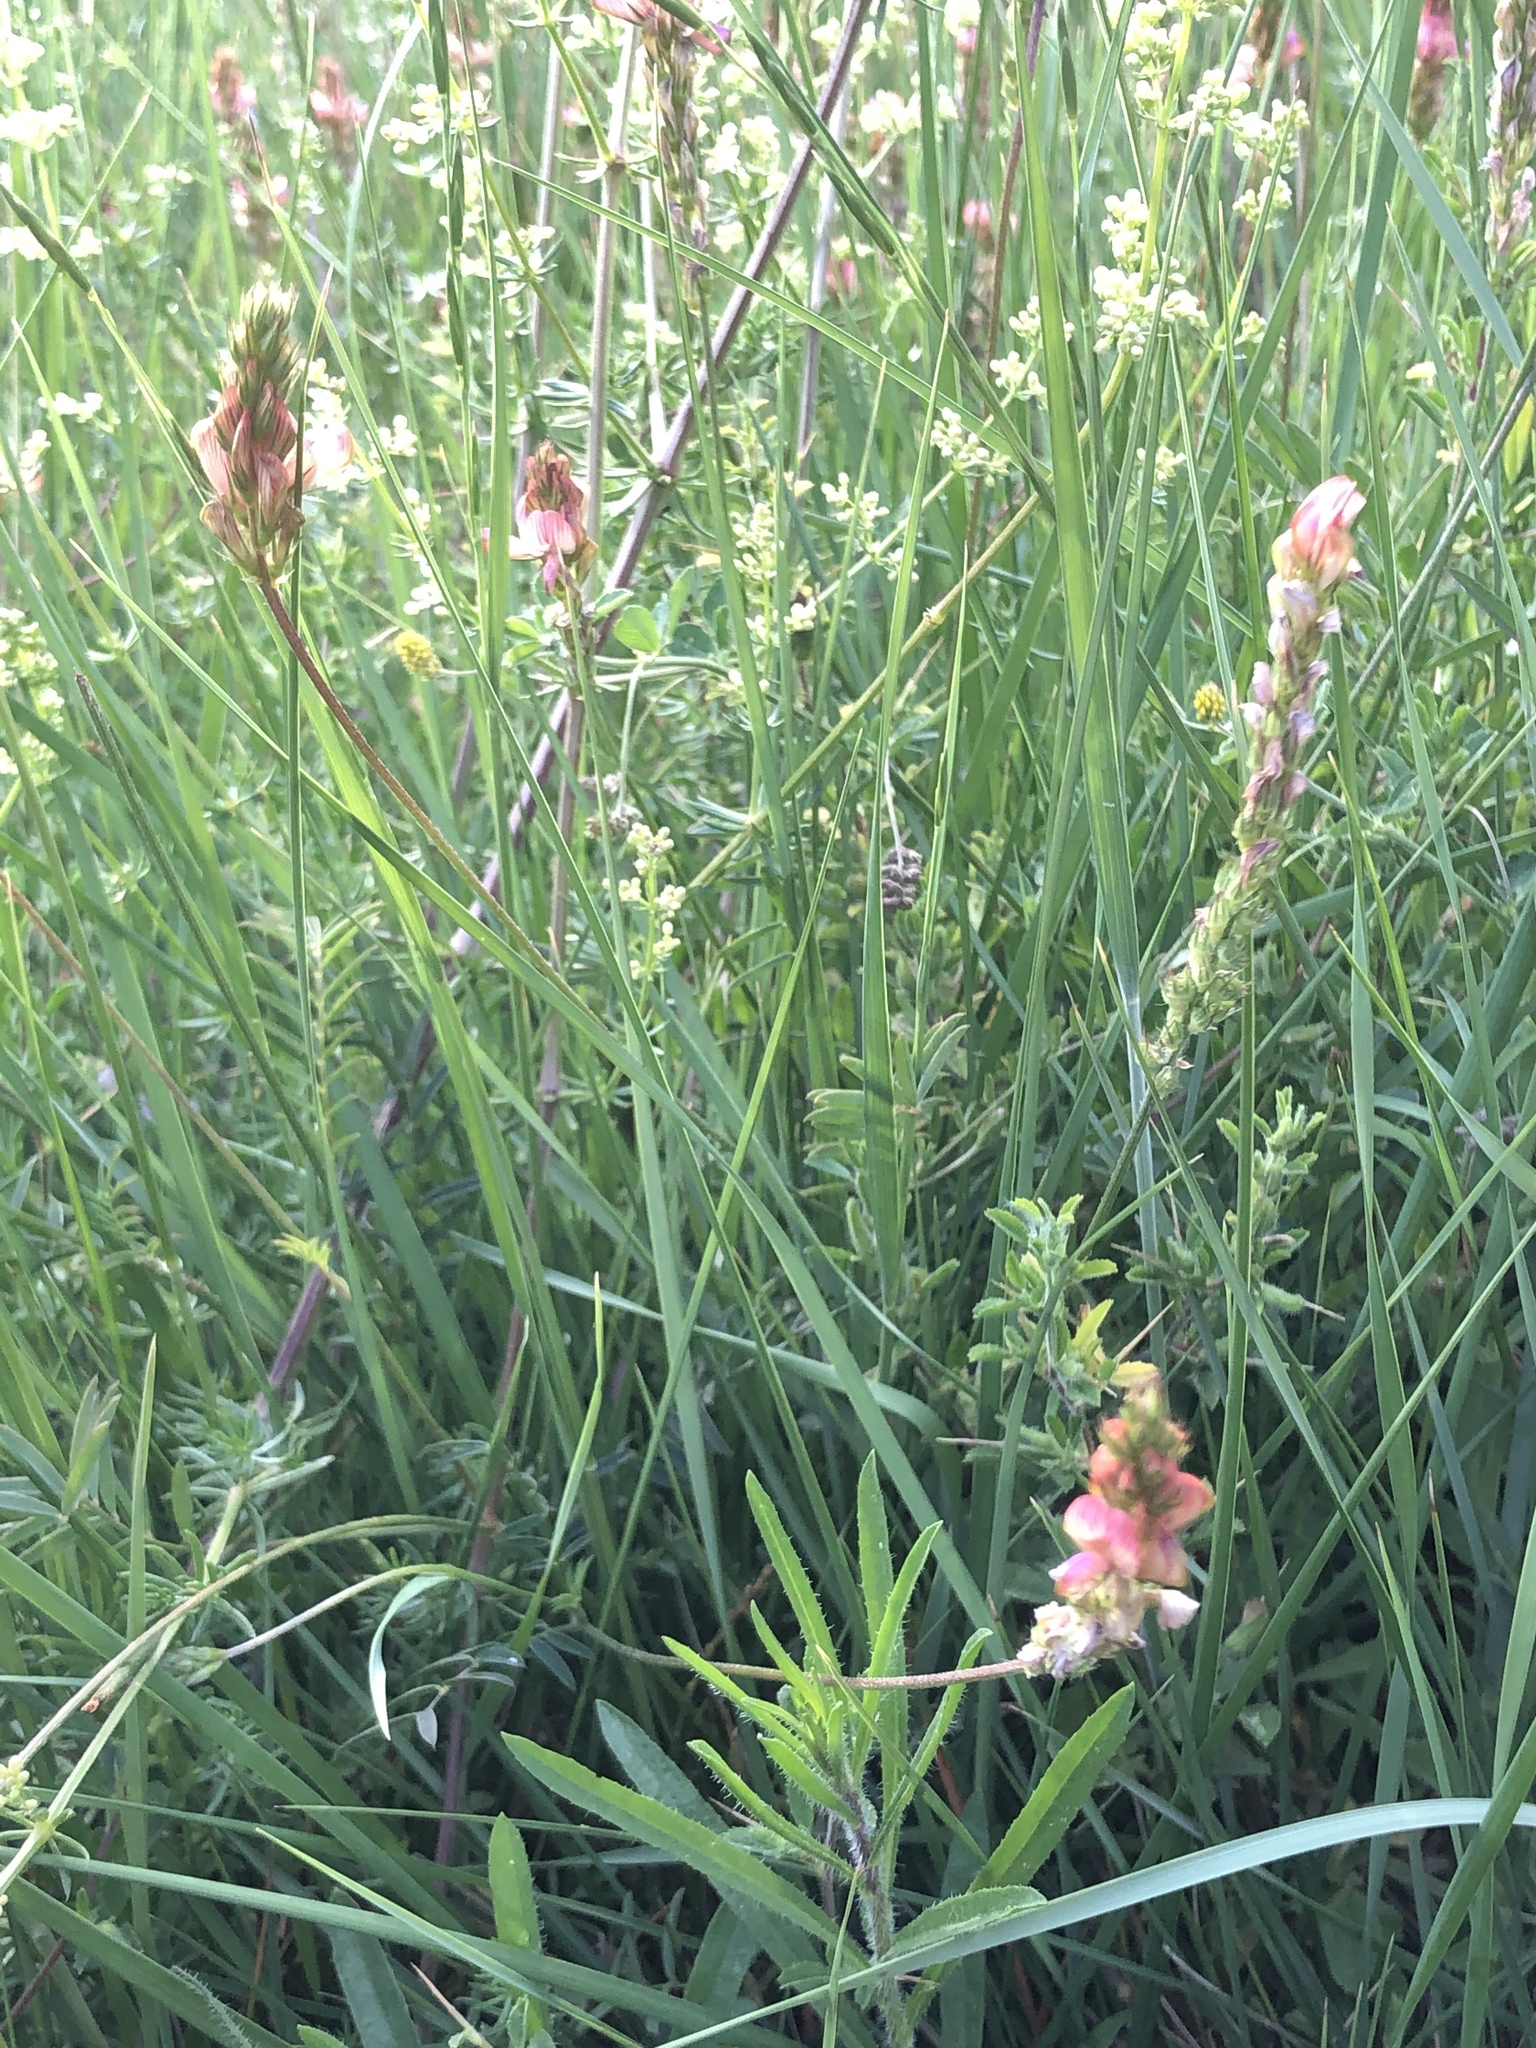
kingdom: Plantae
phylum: Tracheophyta
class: Magnoliopsida
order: Fabales
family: Fabaceae
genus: Onobrychis
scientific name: Onobrychis viciifolia
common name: Sainfoin
